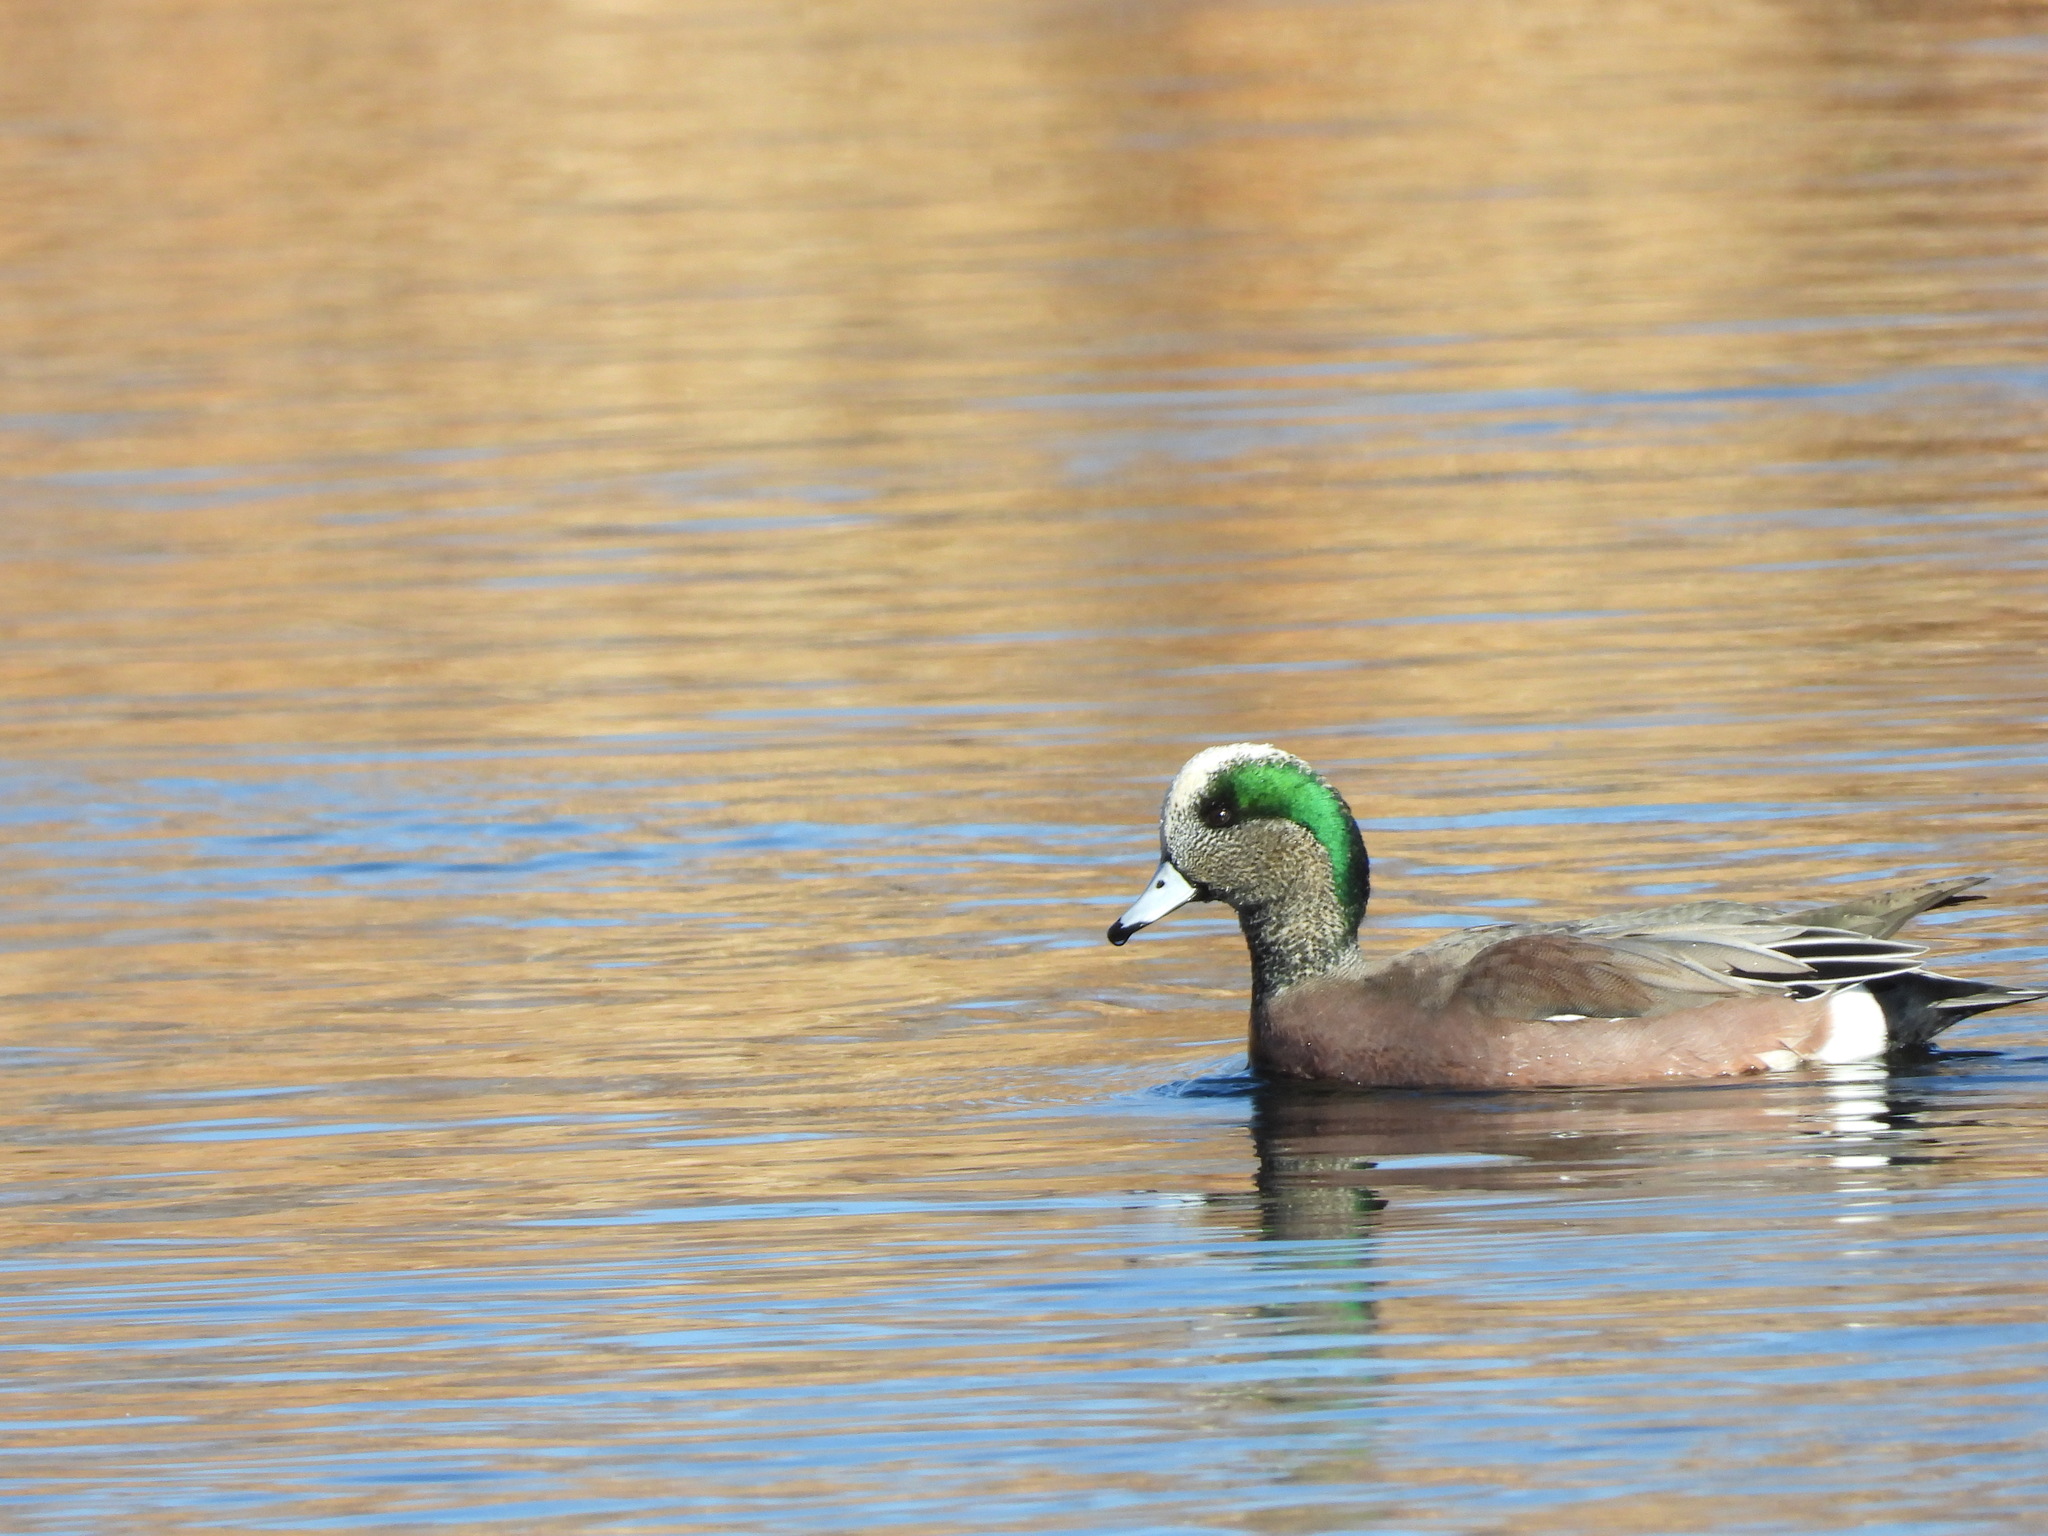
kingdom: Animalia
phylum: Chordata
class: Aves
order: Anseriformes
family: Anatidae
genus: Mareca
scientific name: Mareca americana
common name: American wigeon
